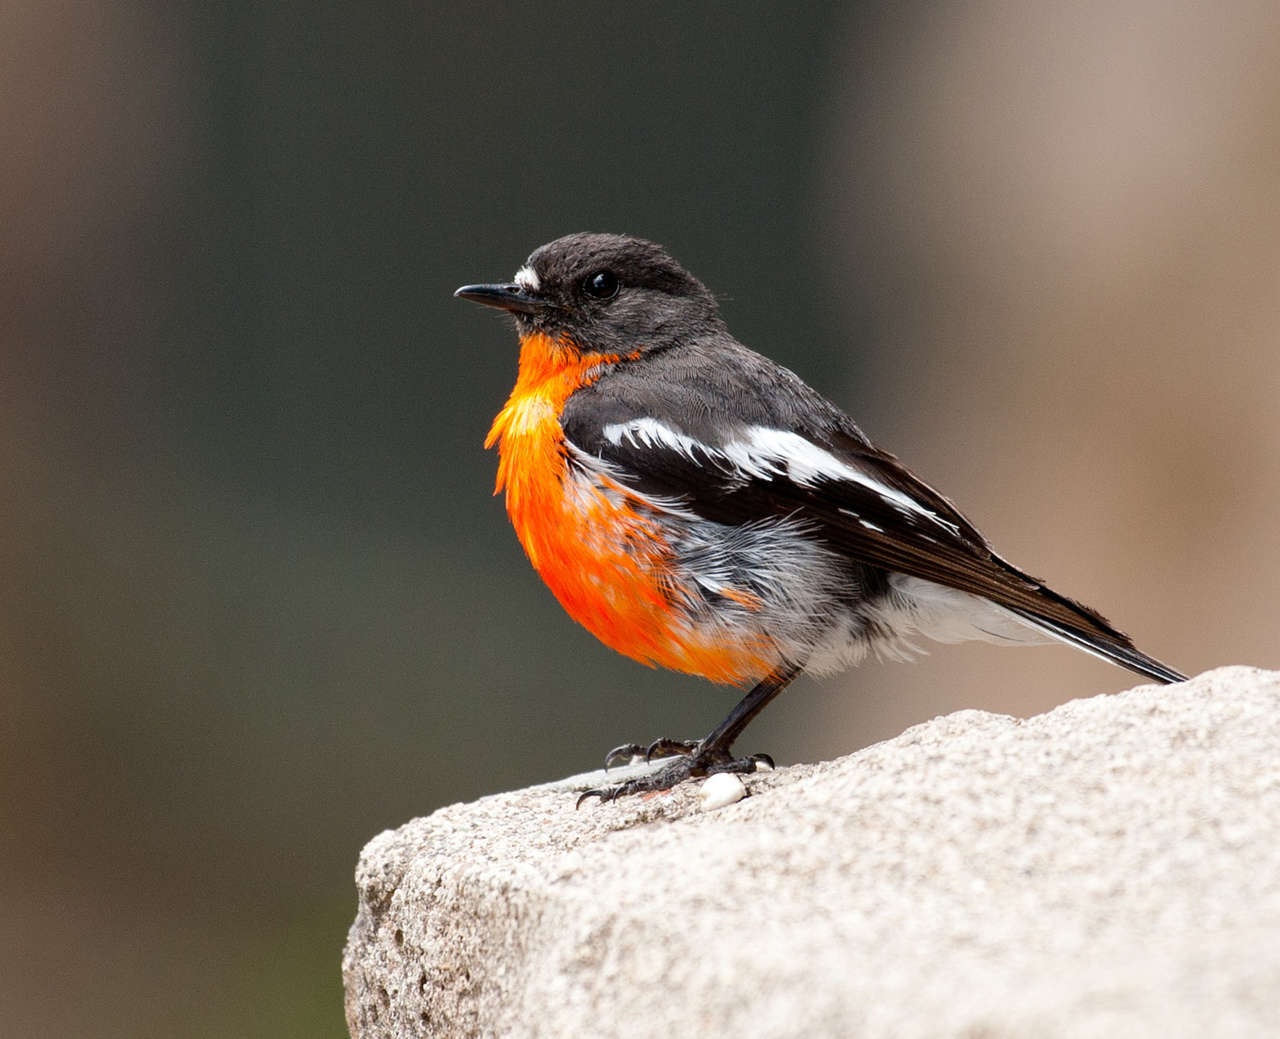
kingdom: Animalia
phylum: Chordata
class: Aves
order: Passeriformes
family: Petroicidae
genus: Petroica
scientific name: Petroica phoenicea
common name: Flame robin
